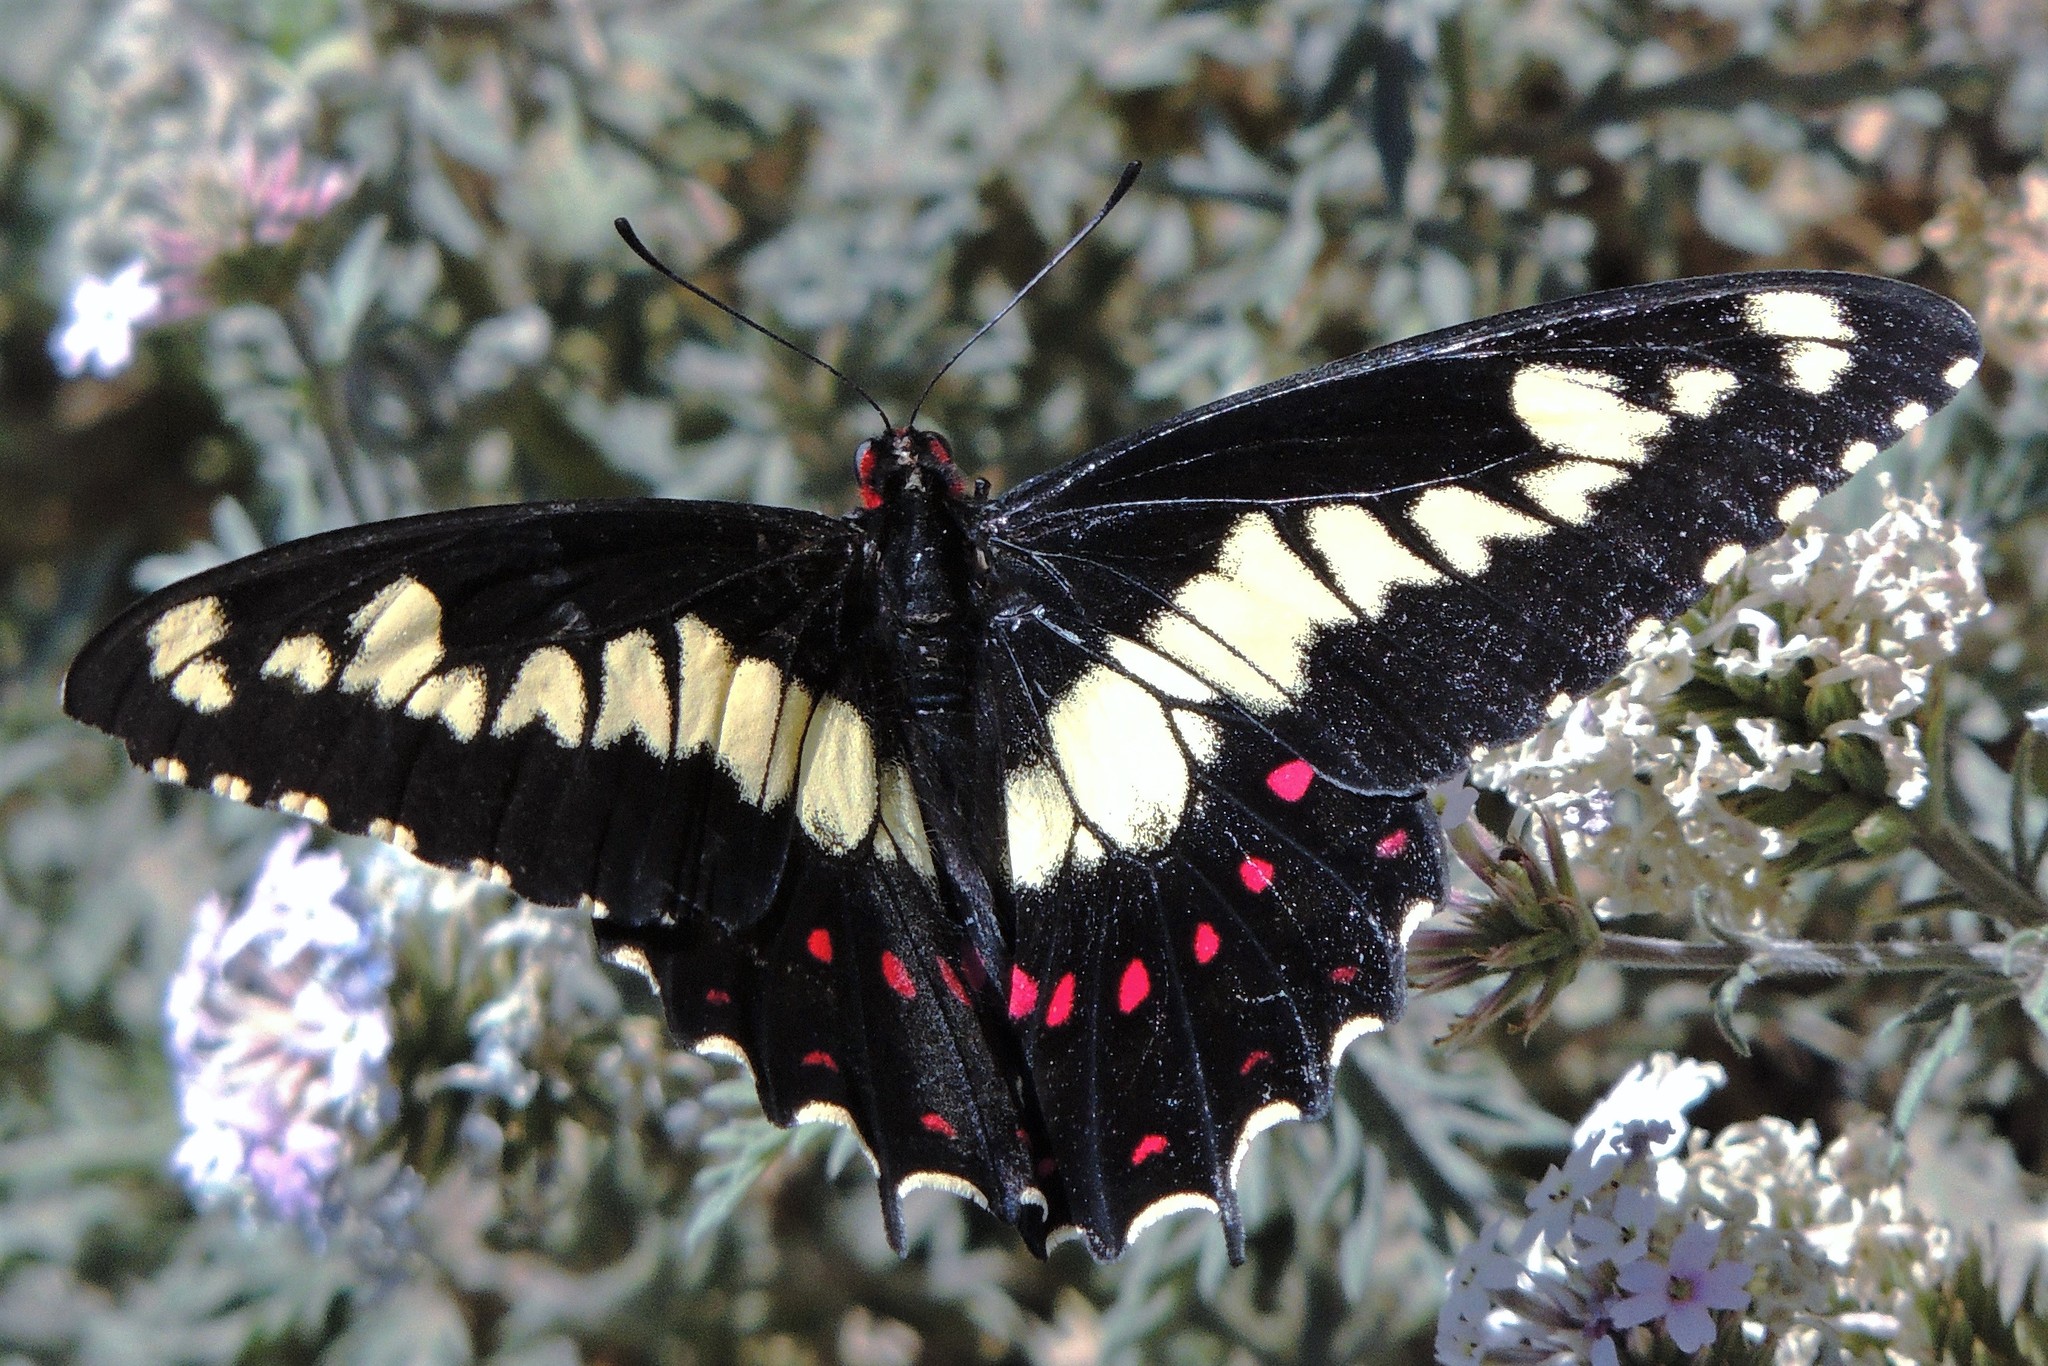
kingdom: Animalia
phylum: Arthropoda
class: Insecta
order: Lepidoptera
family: Papilionidae
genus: Euryades
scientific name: Euryades duponchelii
